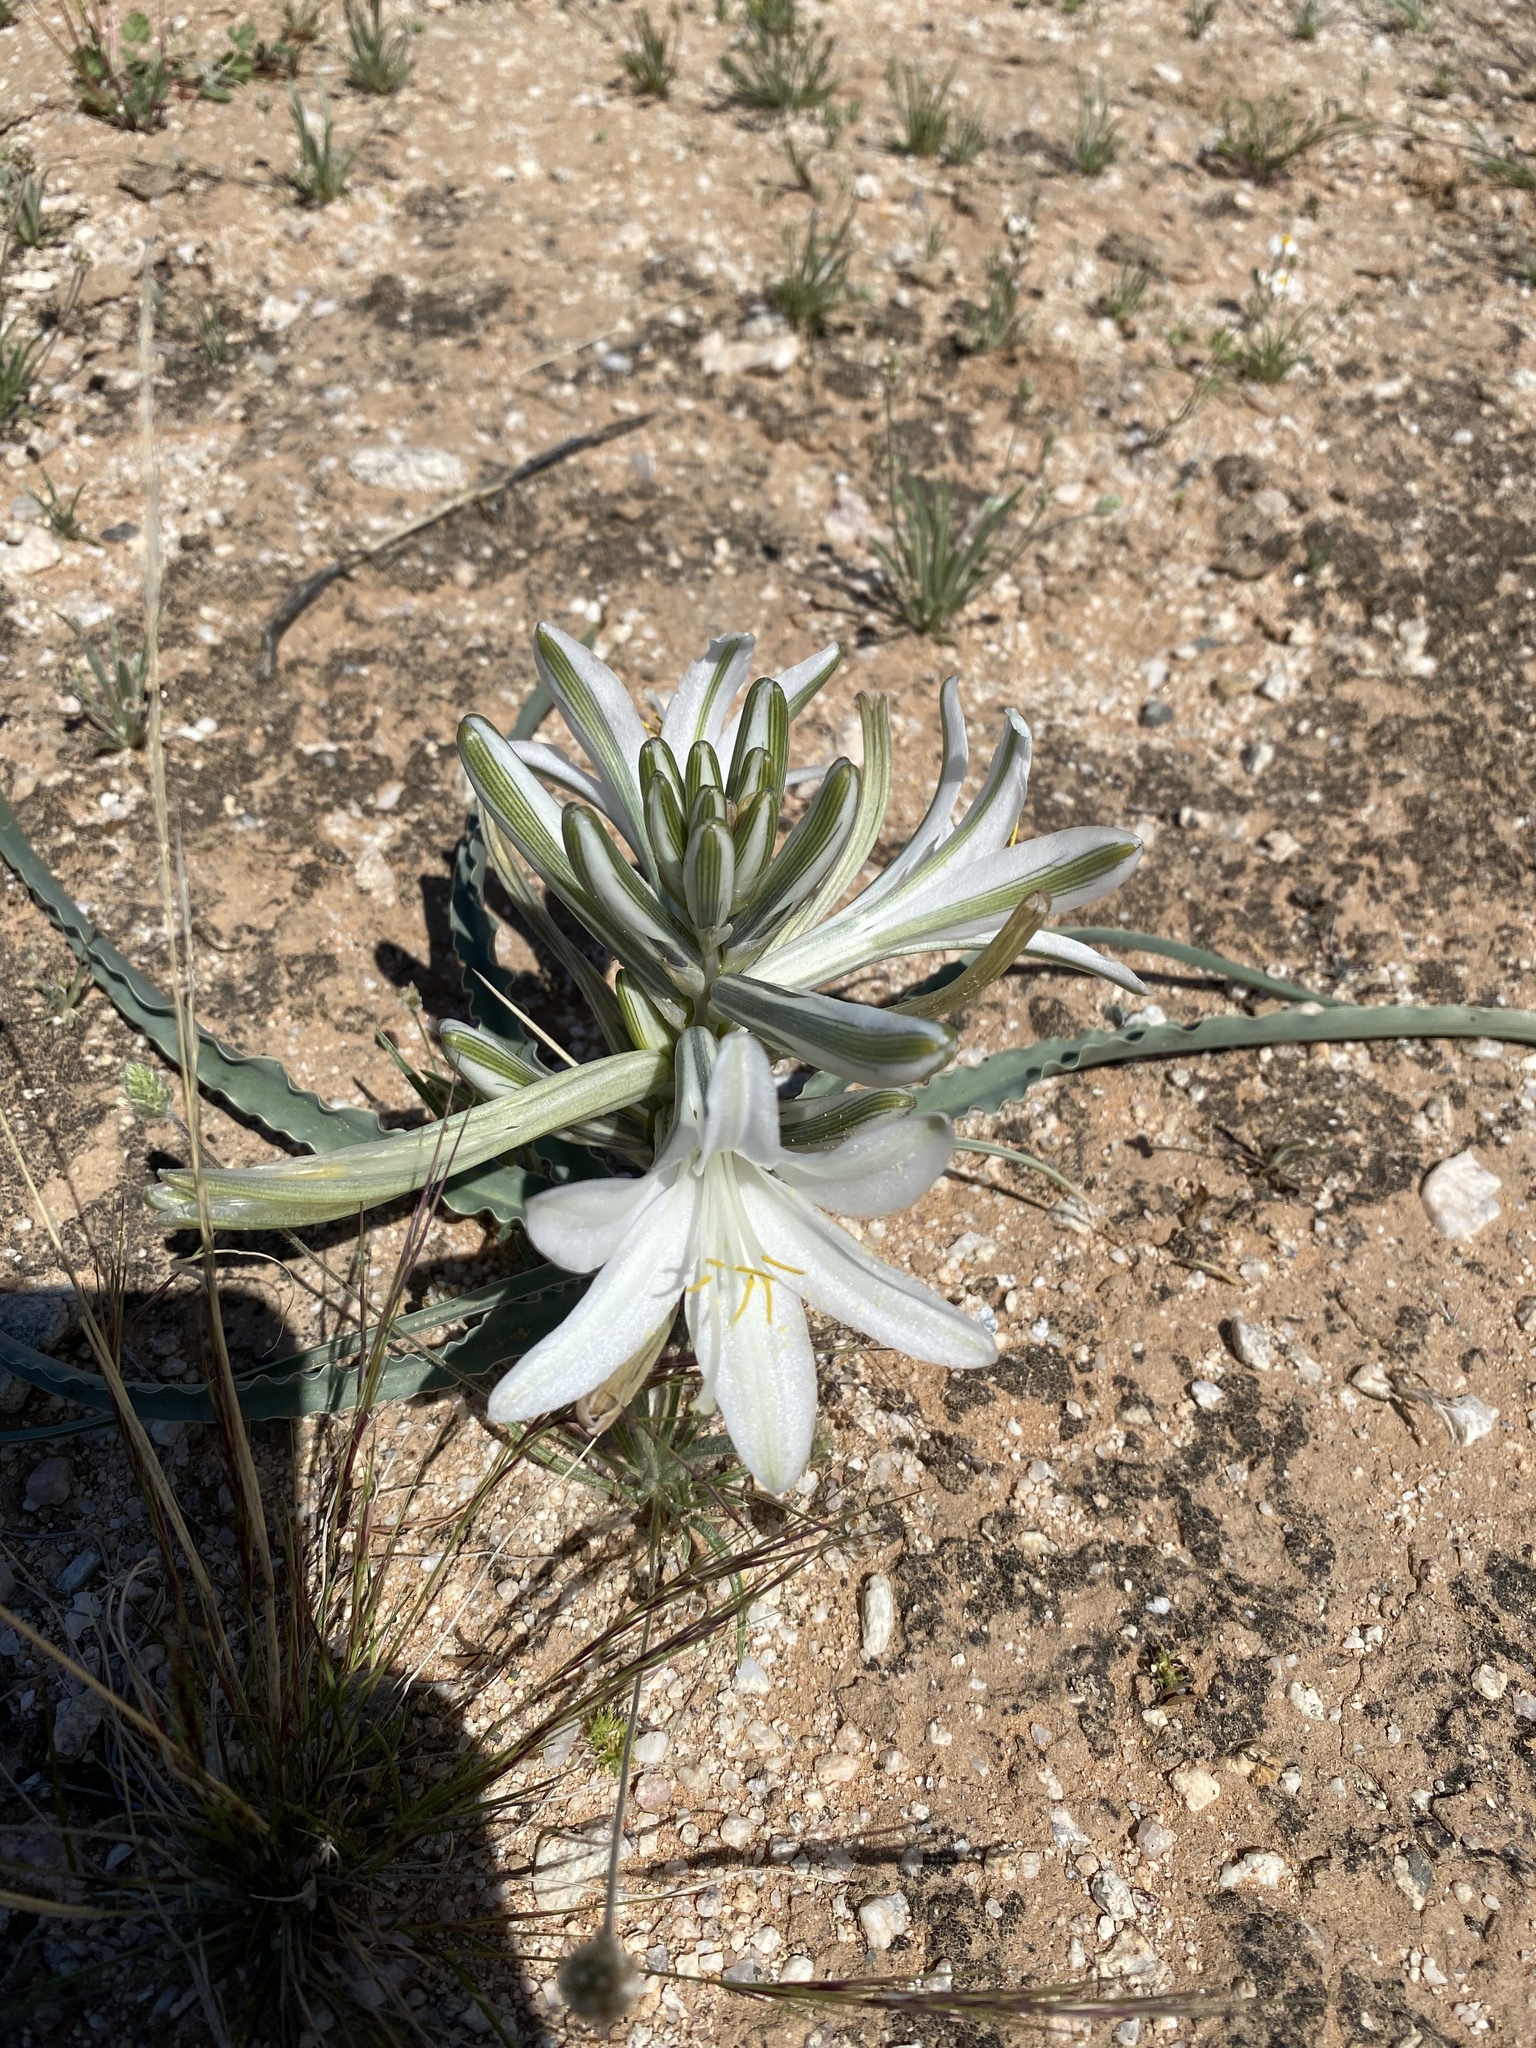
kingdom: Plantae
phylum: Tracheophyta
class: Liliopsida
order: Asparagales
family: Asparagaceae
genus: Hesperocallis
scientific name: Hesperocallis undulata
